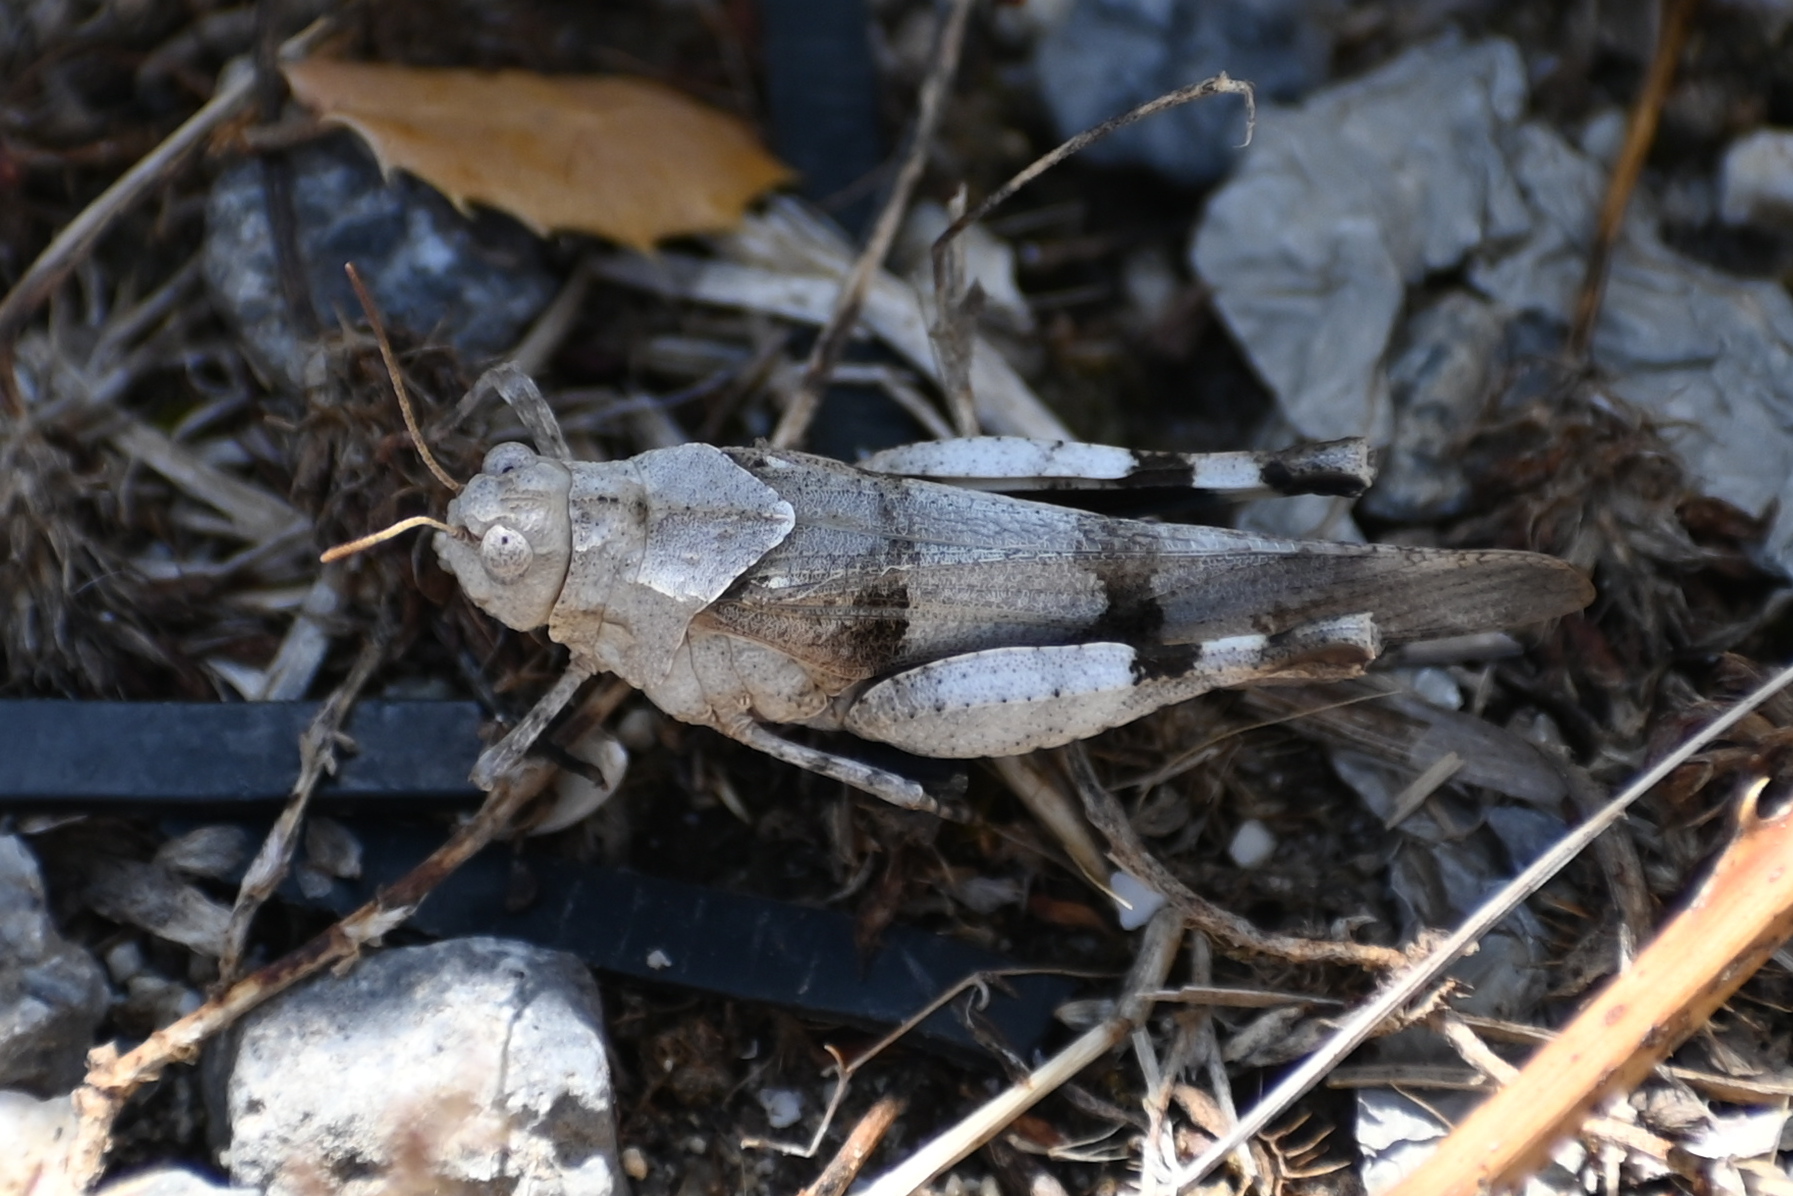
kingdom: Animalia
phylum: Arthropoda
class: Insecta
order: Orthoptera
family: Acrididae
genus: Oedipoda
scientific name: Oedipoda caerulescens
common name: Blue-winged grasshopper
